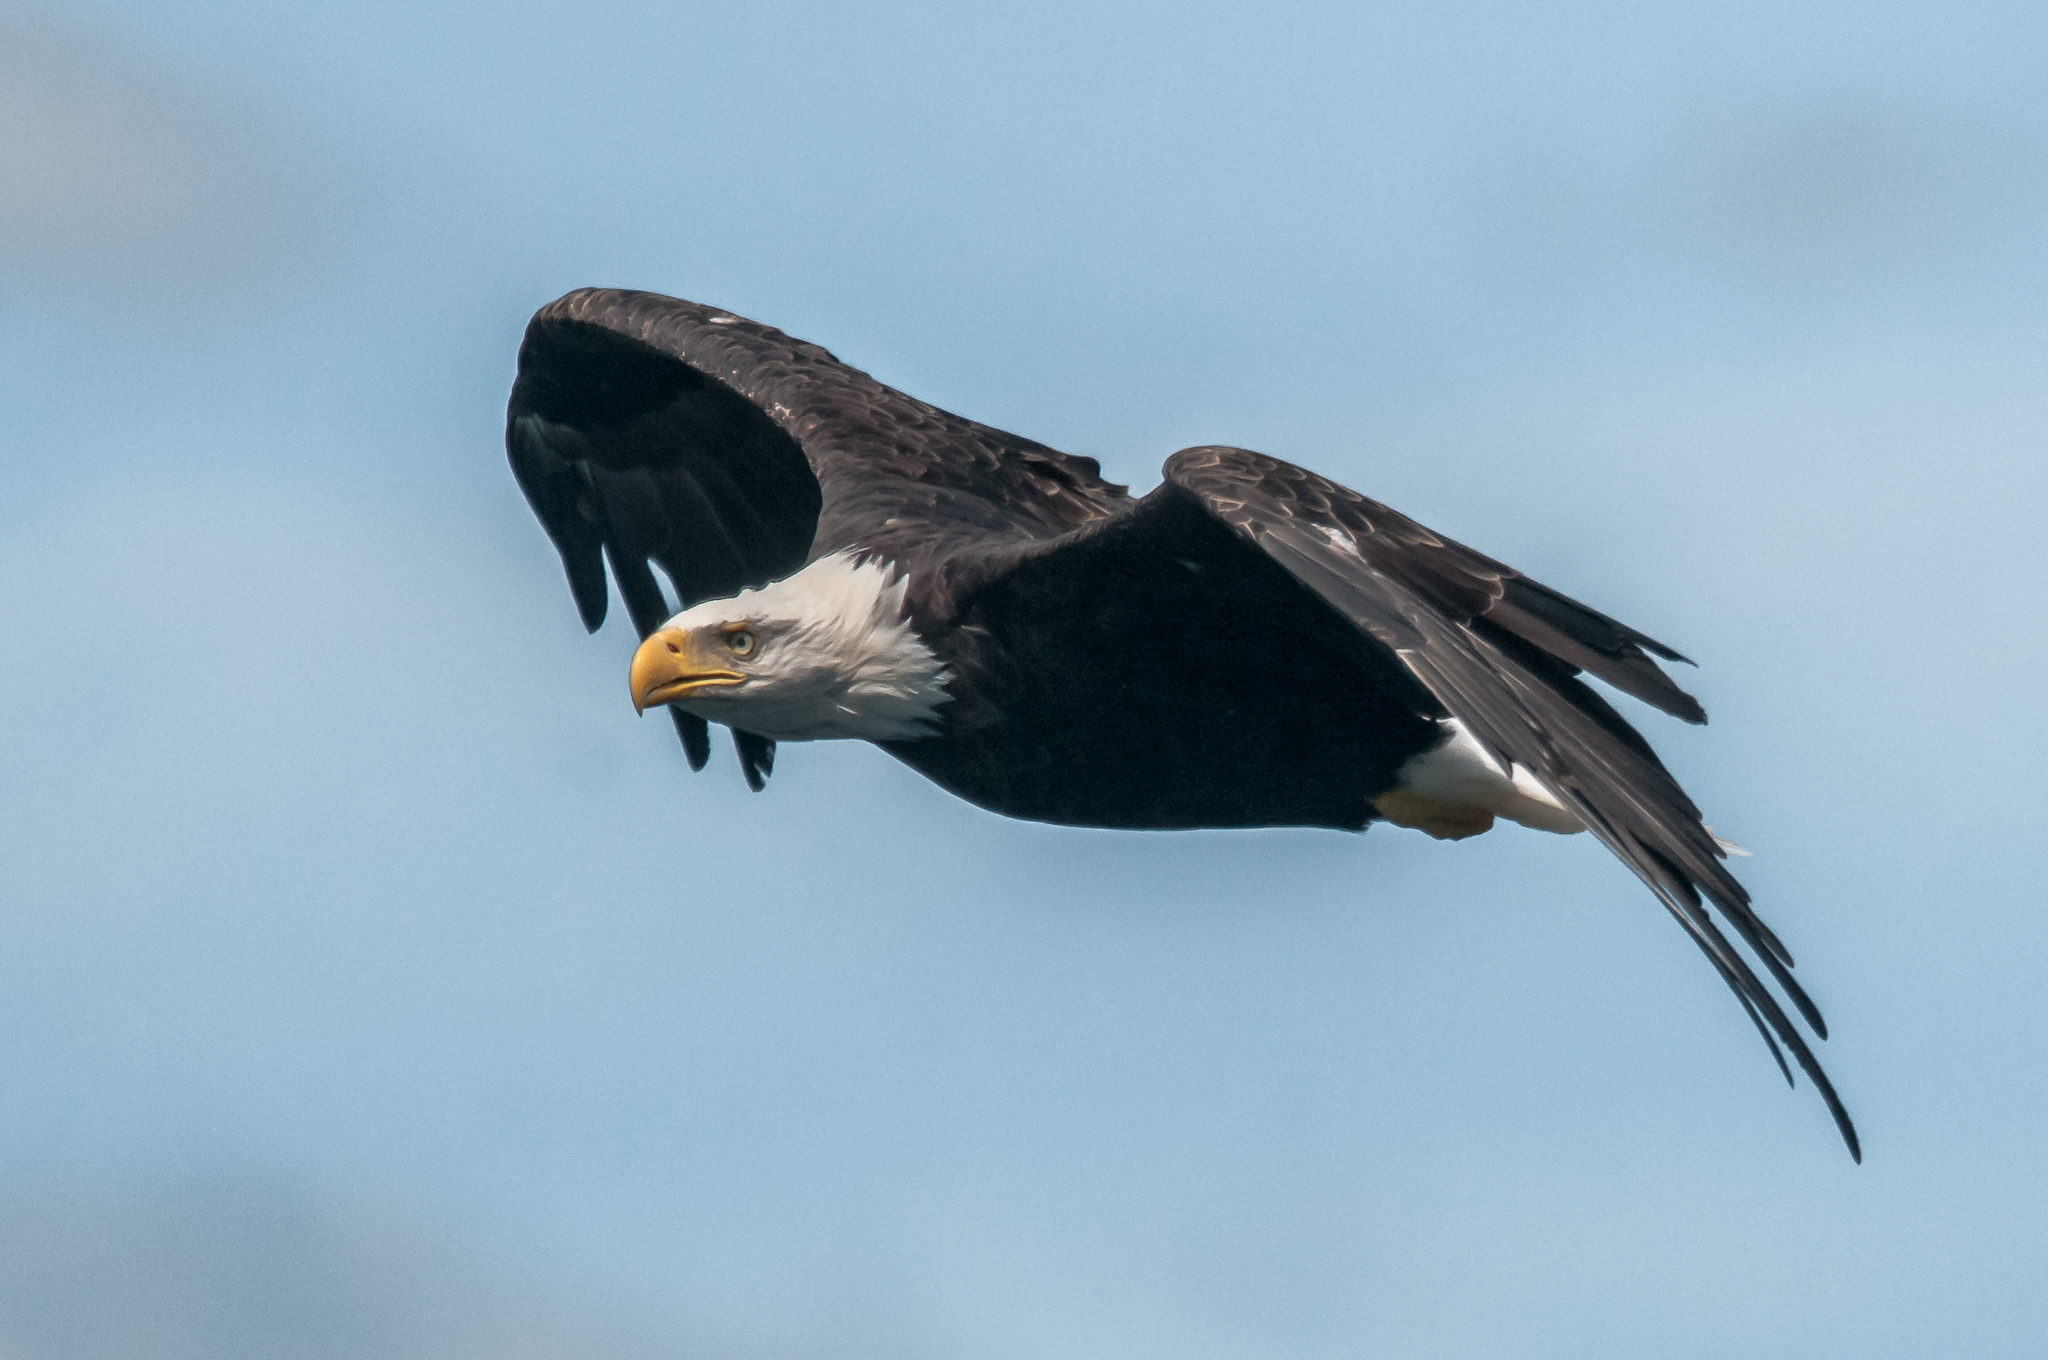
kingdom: Animalia
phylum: Chordata
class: Aves
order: Accipitriformes
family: Accipitridae
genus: Haliaeetus
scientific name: Haliaeetus leucocephalus
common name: Bald eagle
